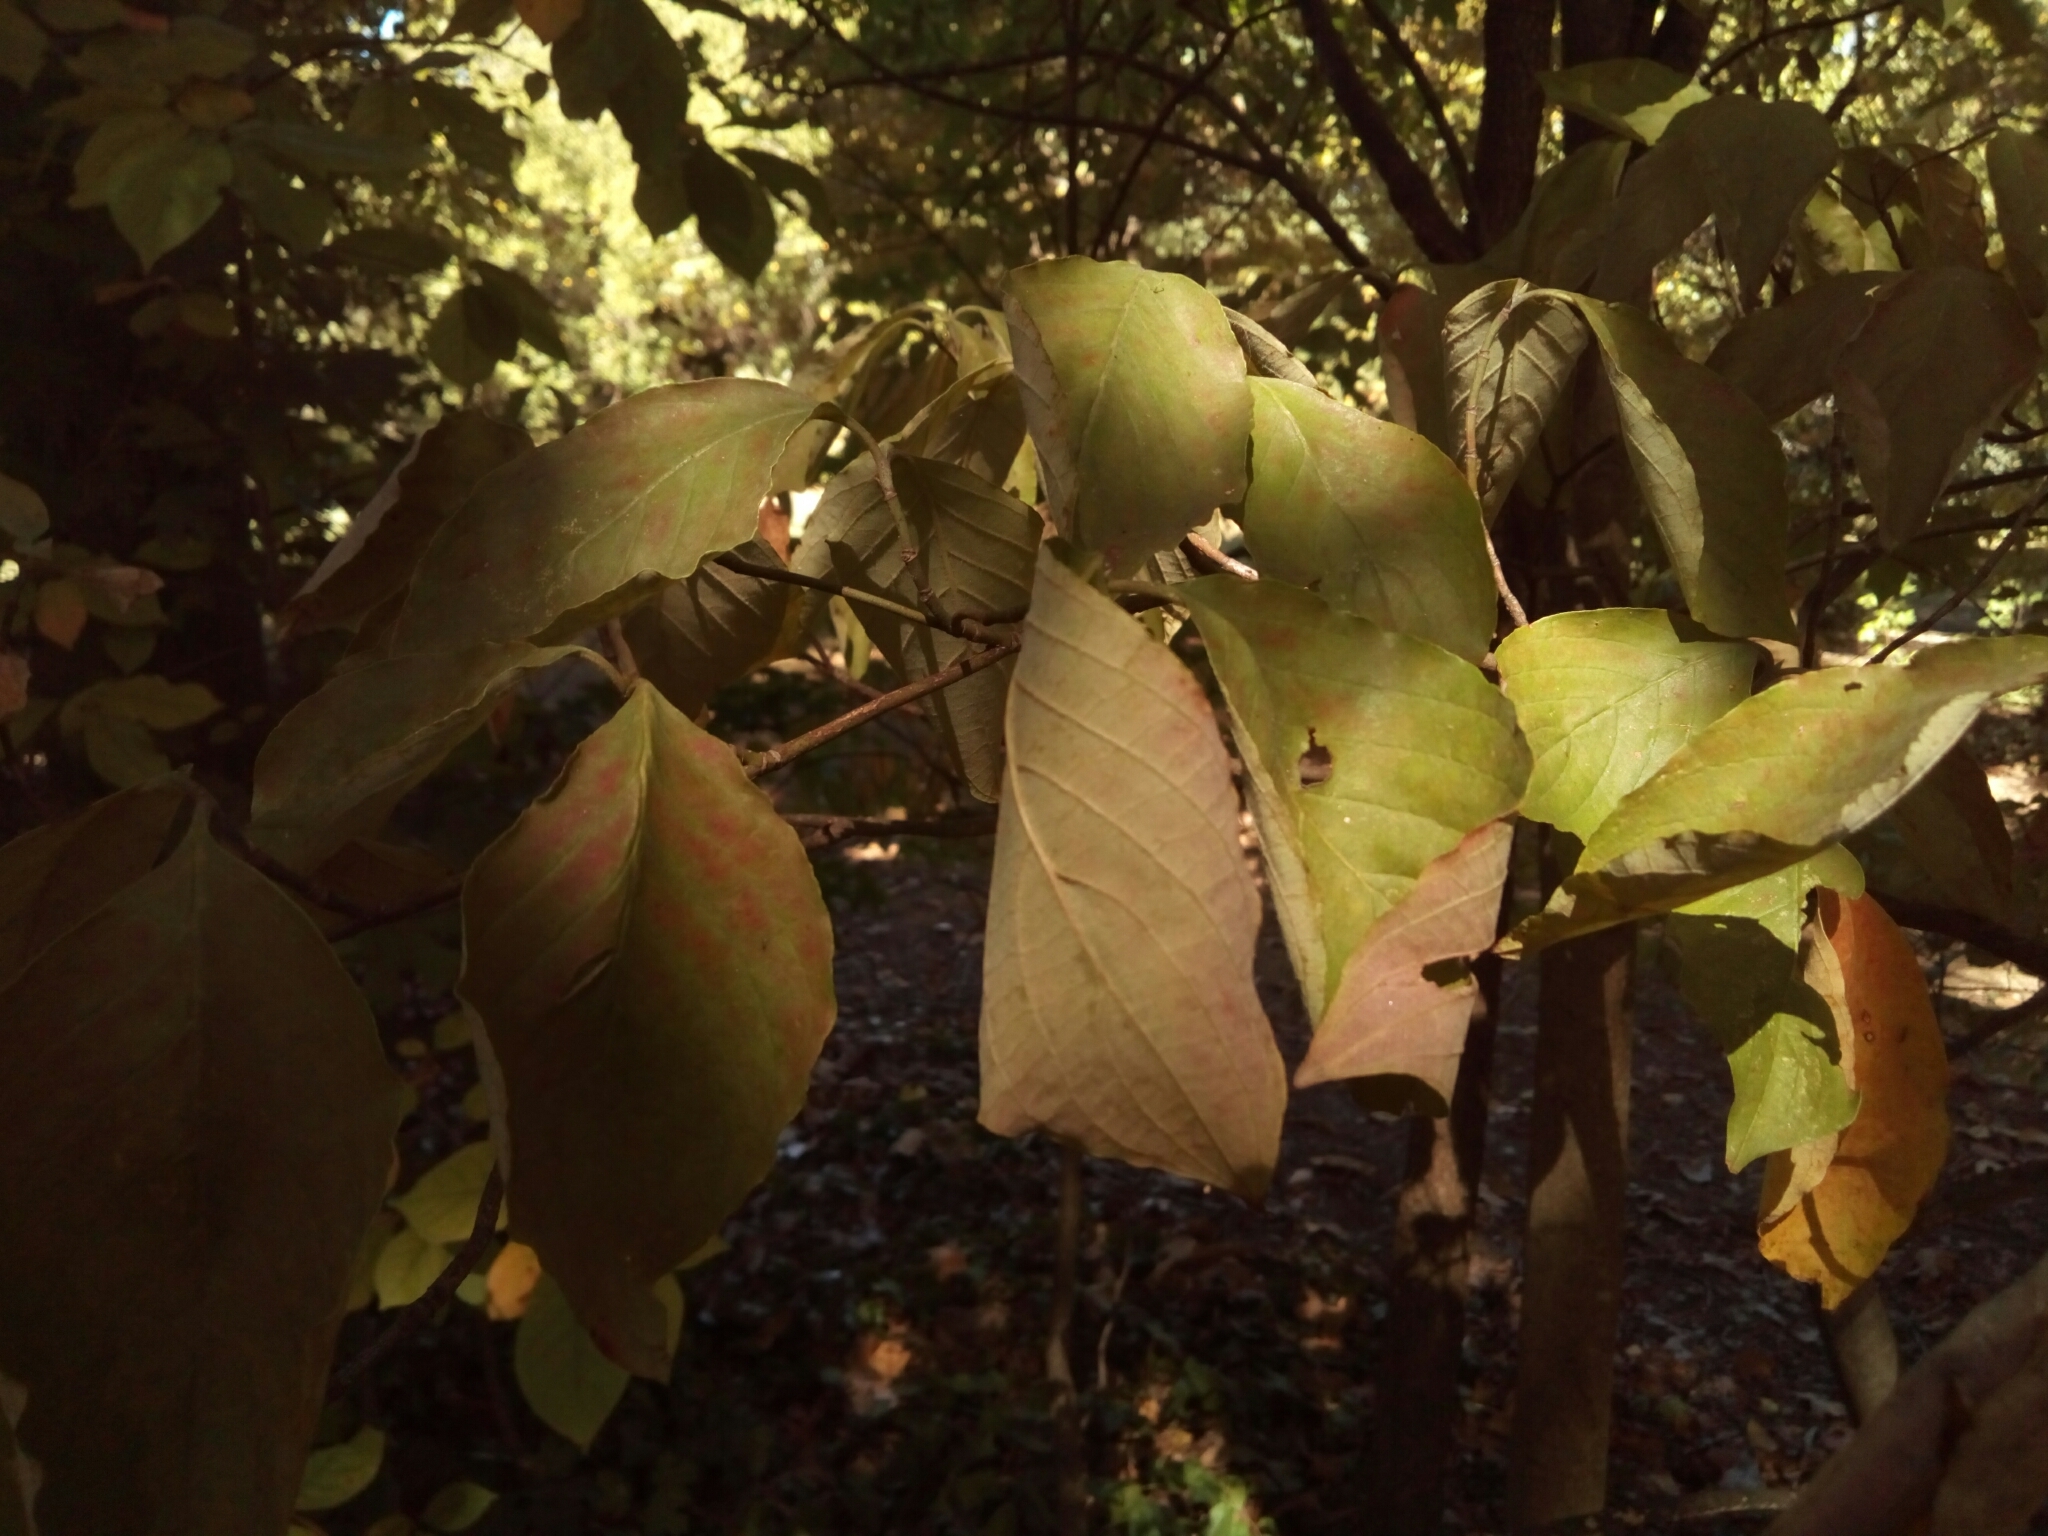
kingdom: Plantae
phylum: Tracheophyta
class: Magnoliopsida
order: Cornales
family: Cornaceae
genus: Cornus
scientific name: Cornus florida
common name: Flowering dogwood
